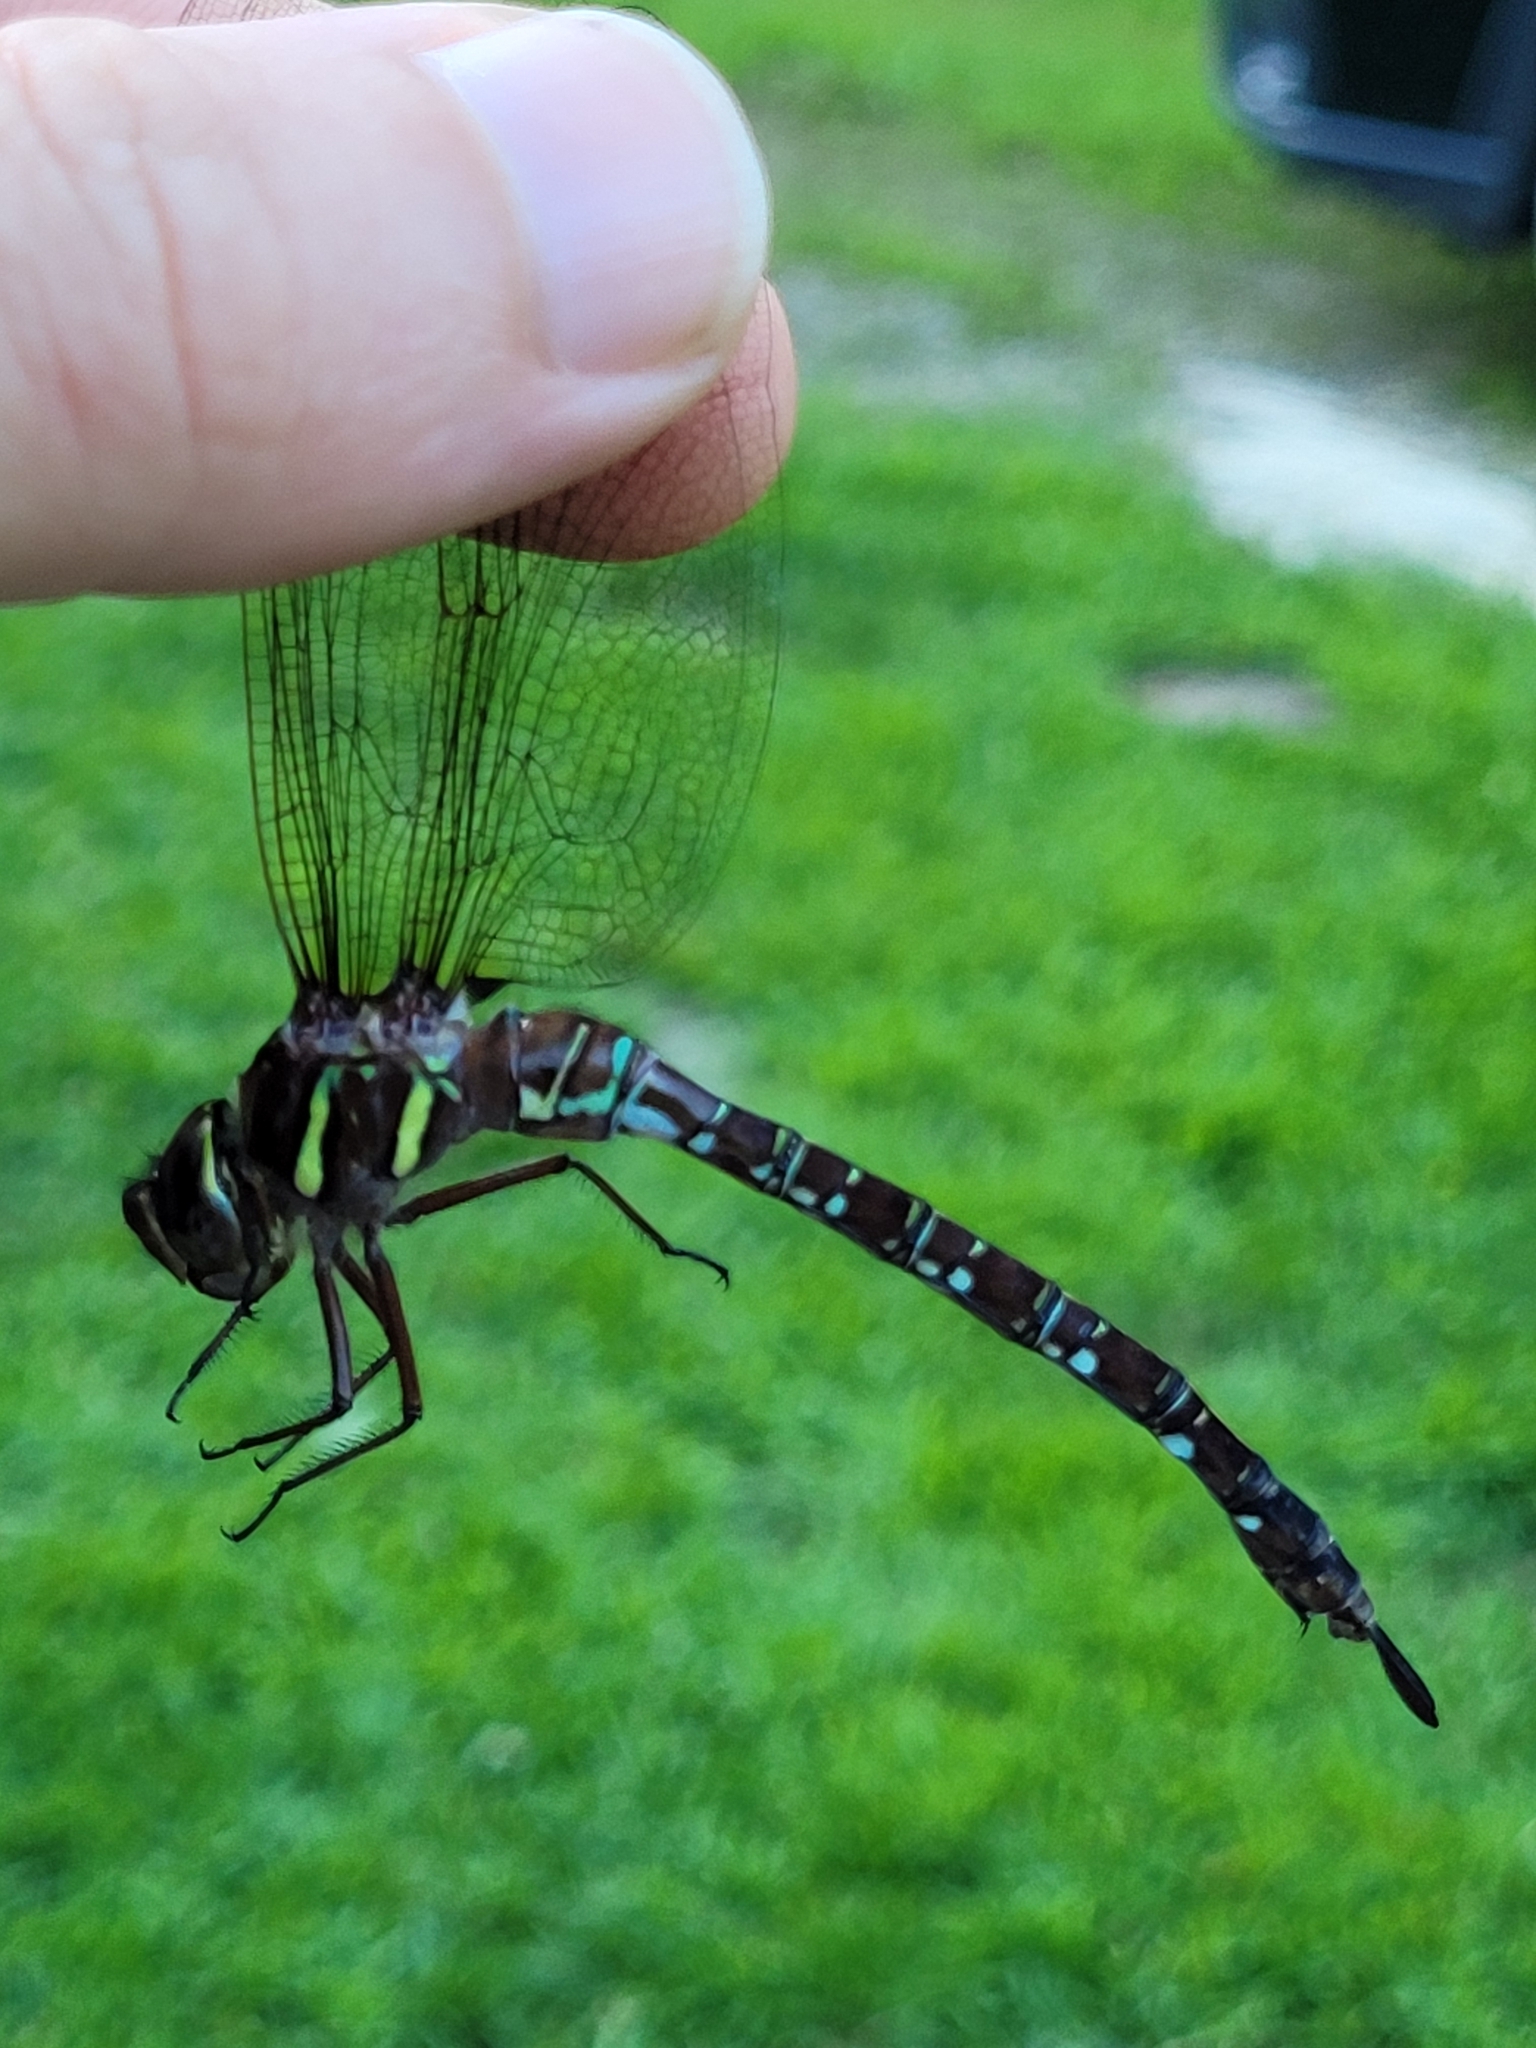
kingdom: Animalia
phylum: Arthropoda
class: Insecta
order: Odonata
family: Aeshnidae
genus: Aeshna
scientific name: Aeshna umbrosa
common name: Shadow darner
